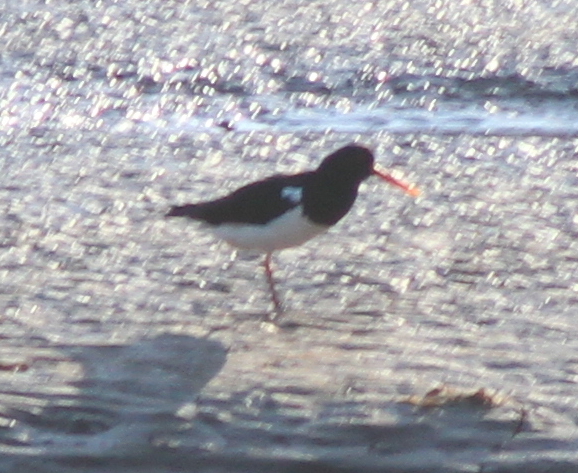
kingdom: Animalia
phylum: Chordata
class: Aves
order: Charadriiformes
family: Haematopodidae
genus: Haematopus
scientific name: Haematopus ostralegus
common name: Eurasian oystercatcher
